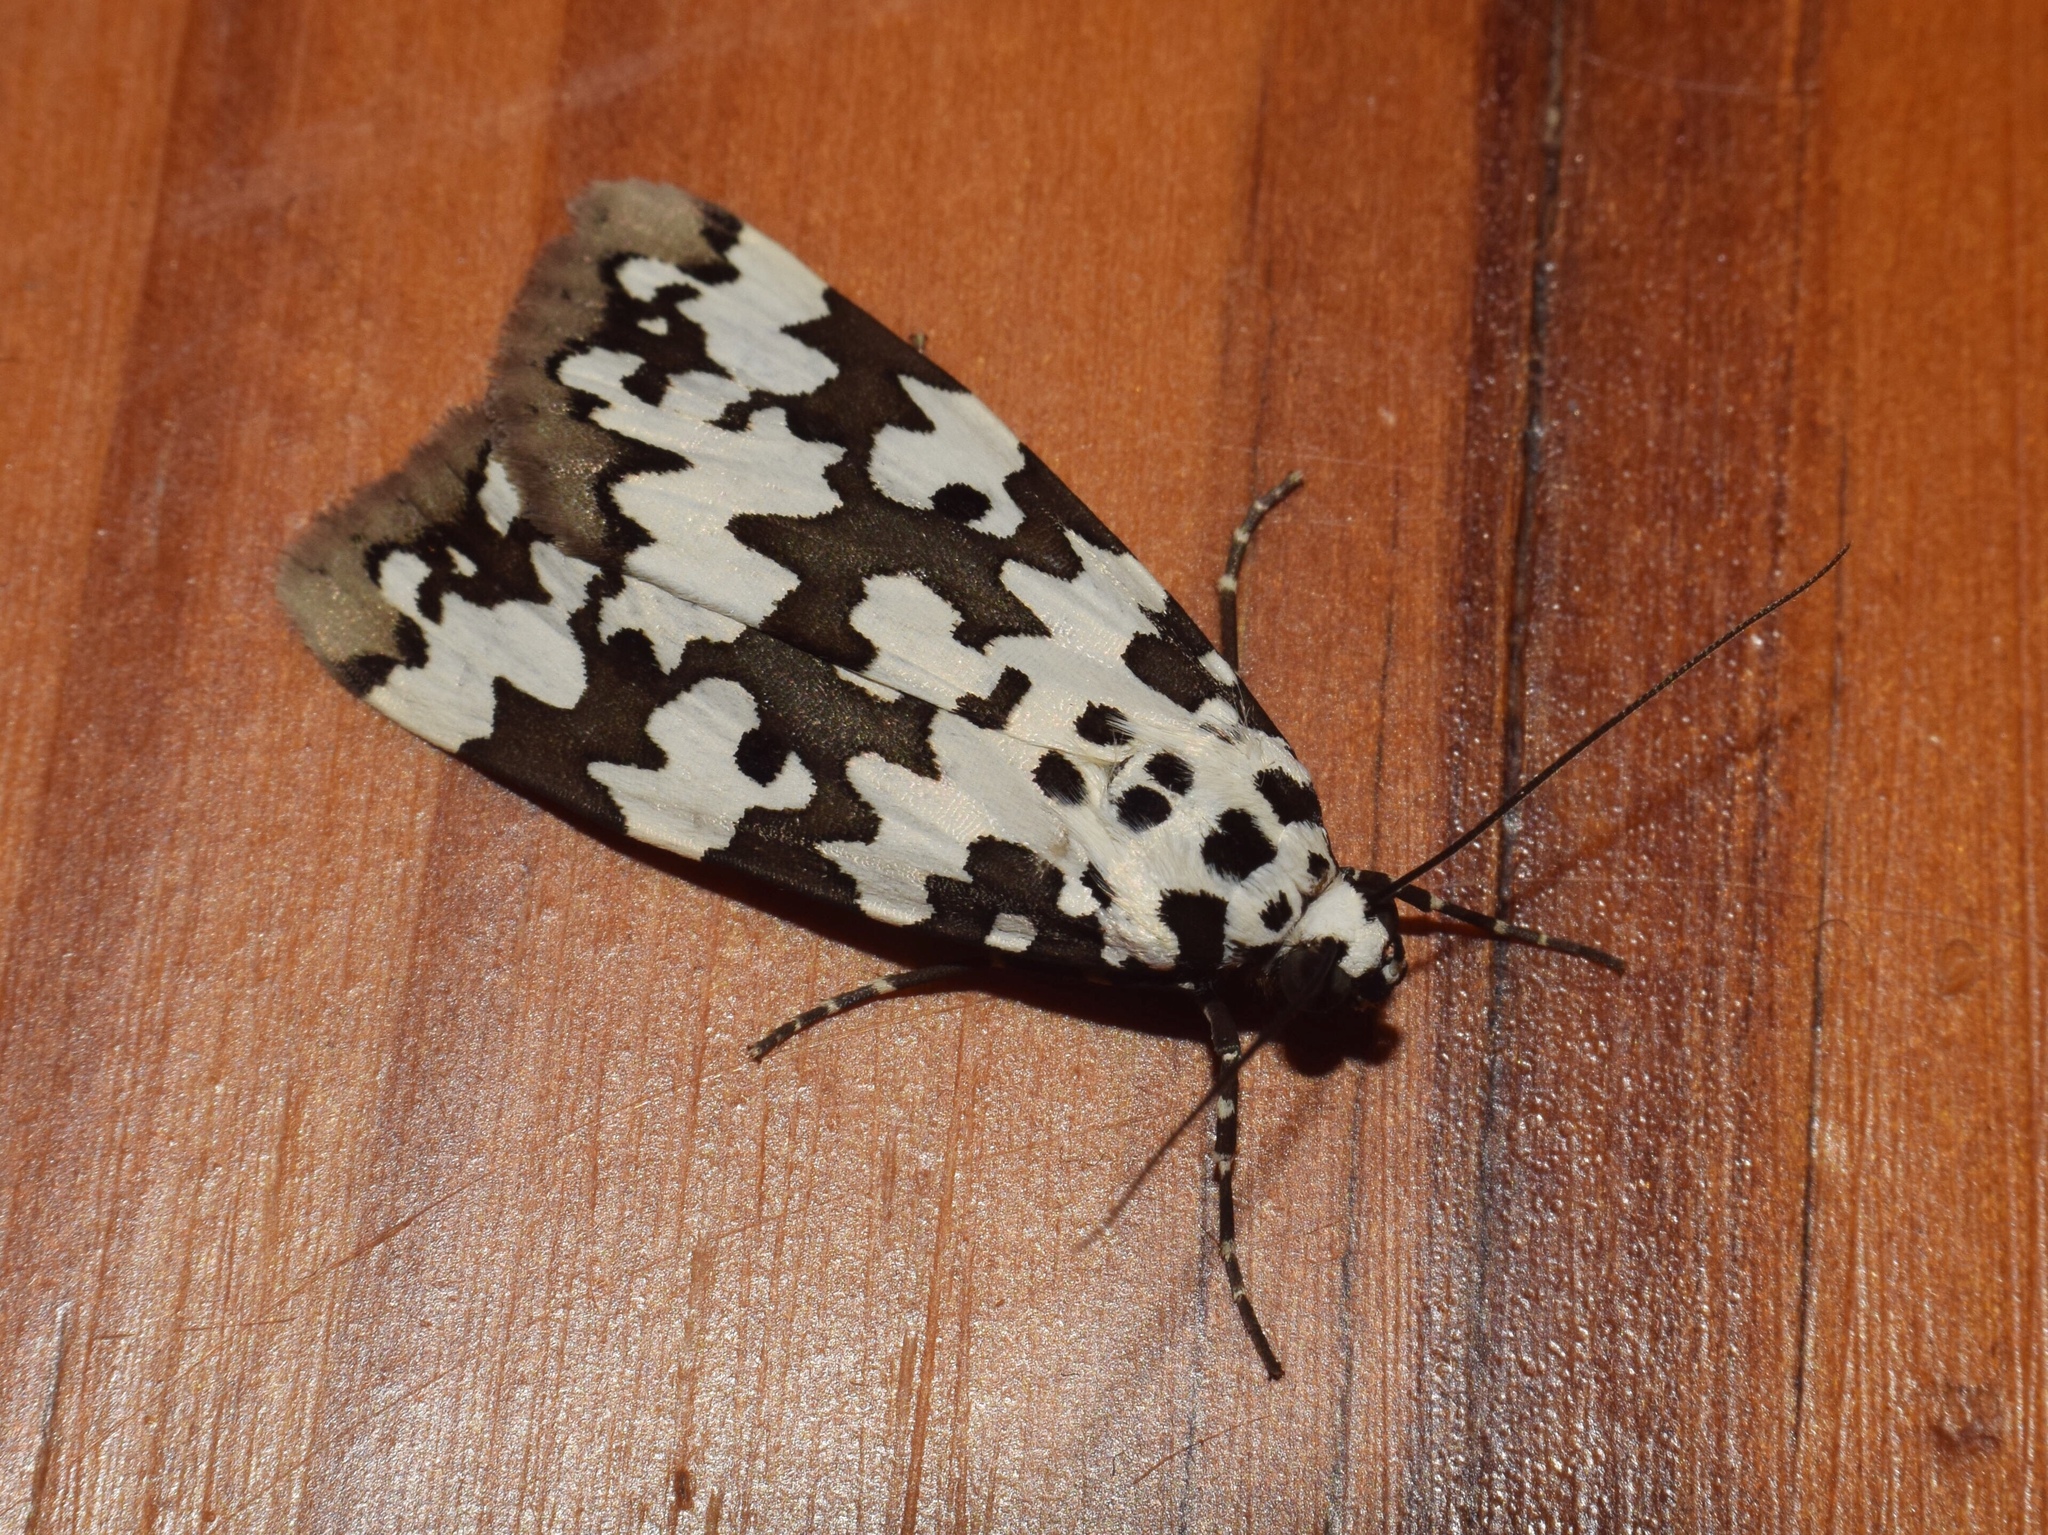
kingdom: Animalia
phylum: Arthropoda
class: Insecta
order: Lepidoptera
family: Erebidae
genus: Digama
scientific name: Digama spilosoma
